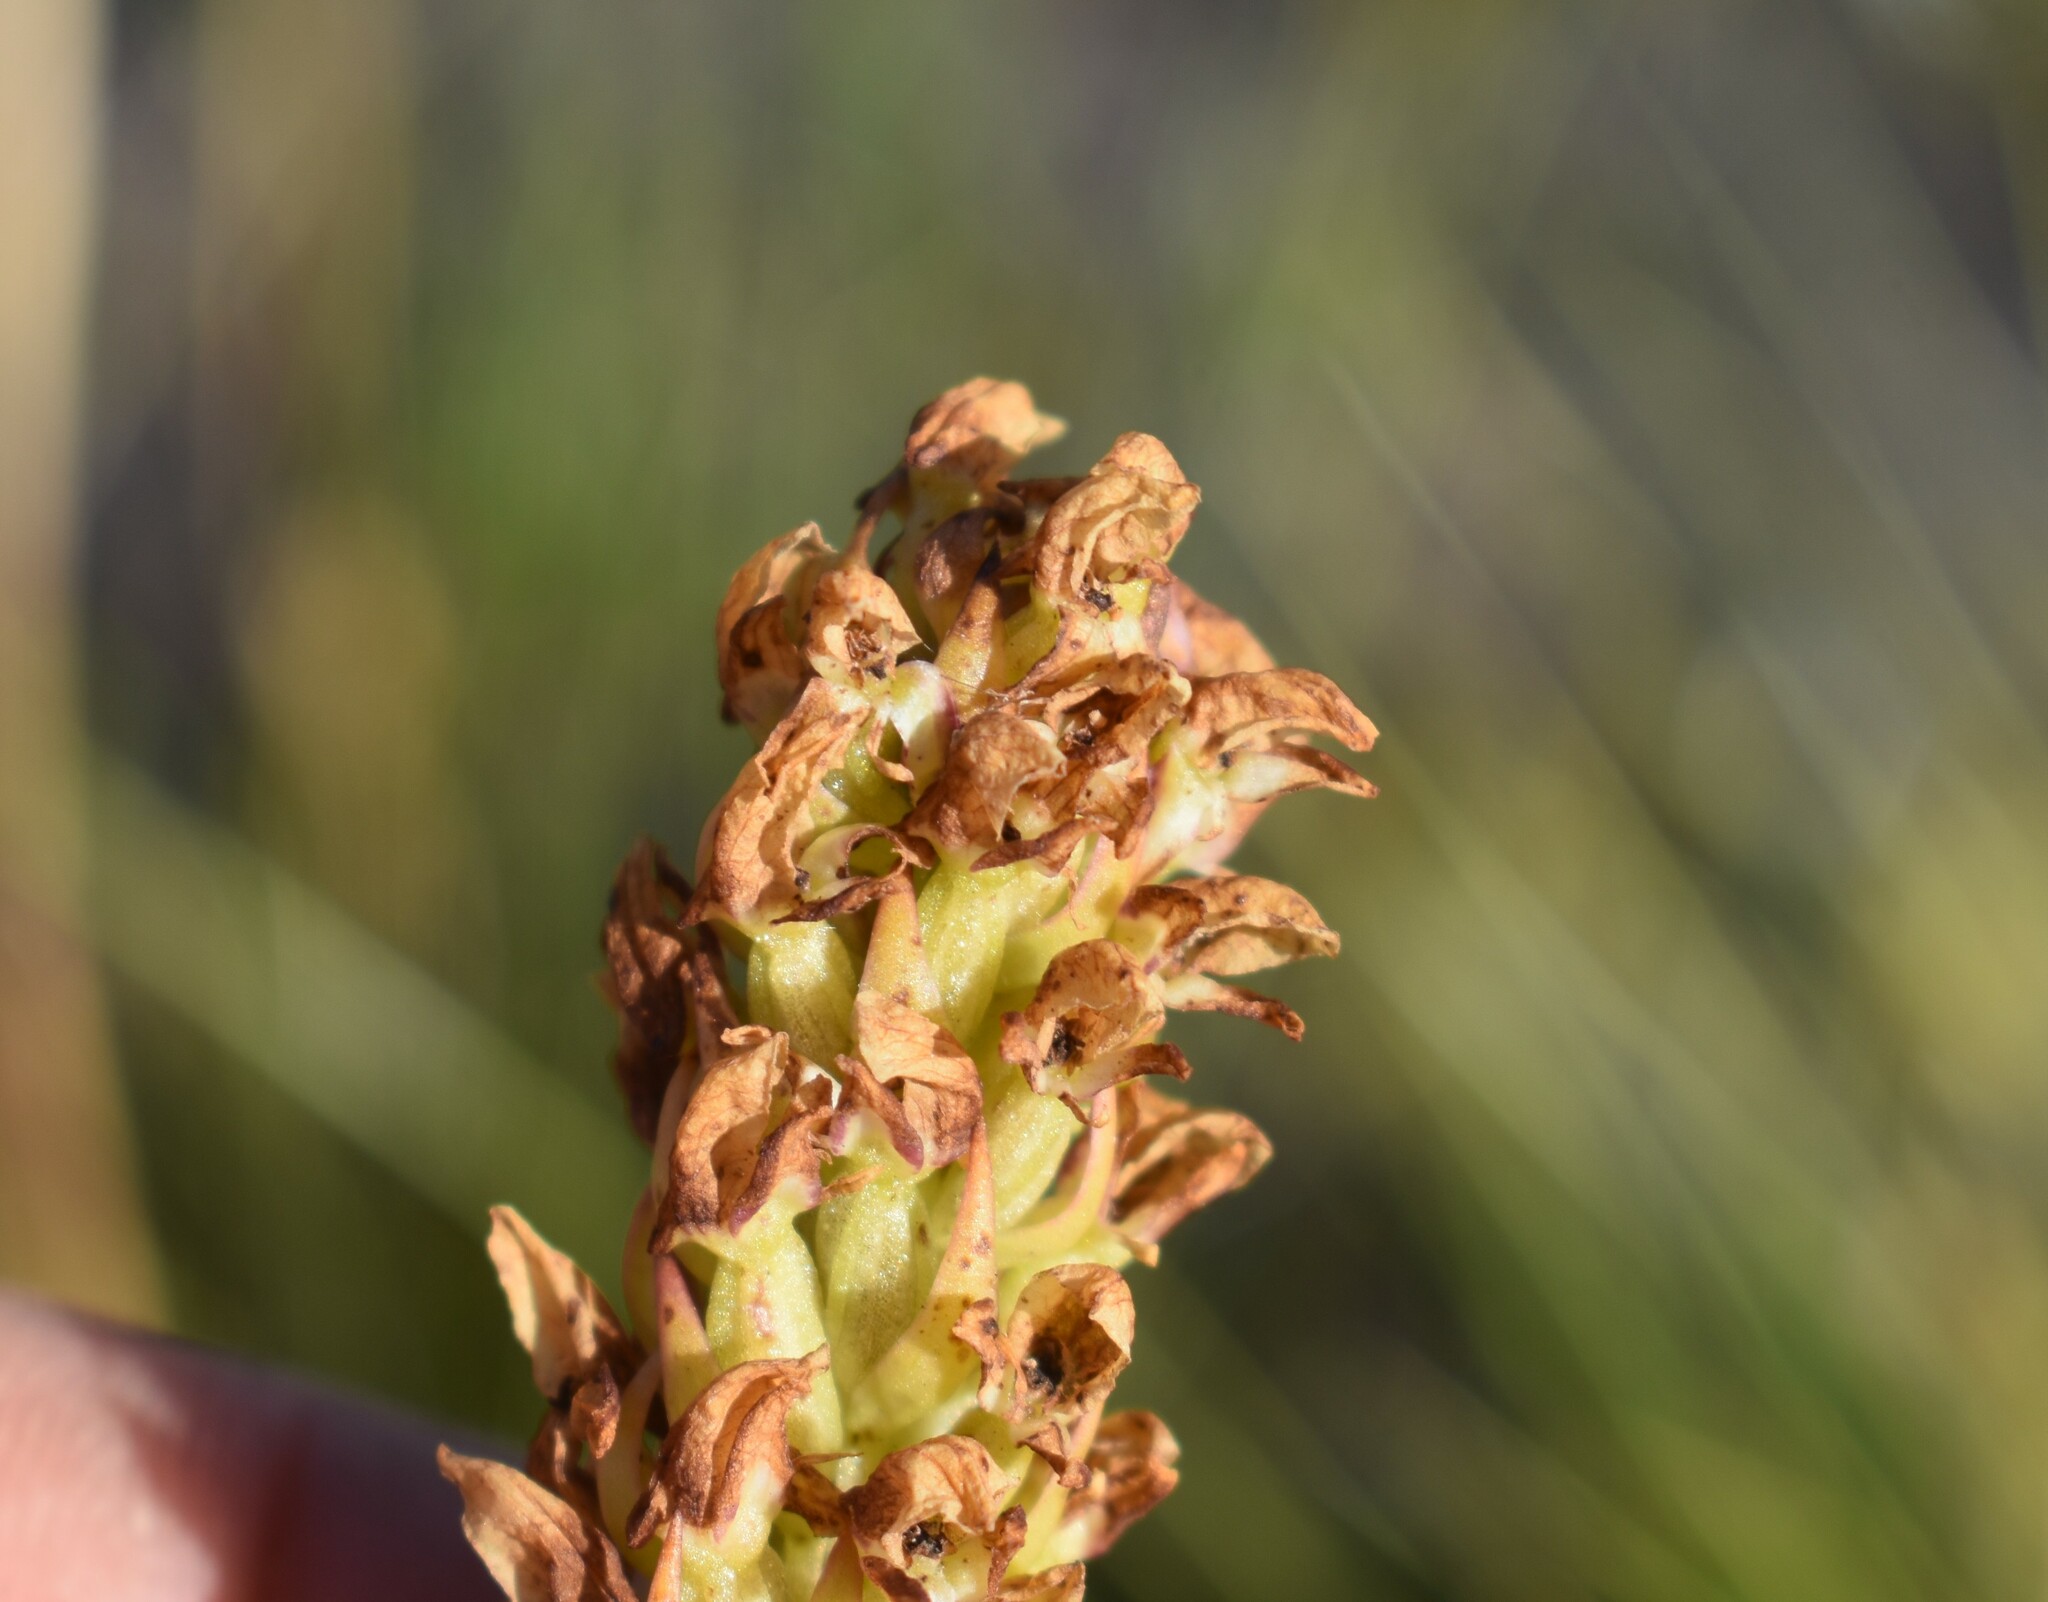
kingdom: Plantae
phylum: Tracheophyta
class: Liliopsida
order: Asparagales
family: Orchidaceae
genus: Disa
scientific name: Disa obtusa
